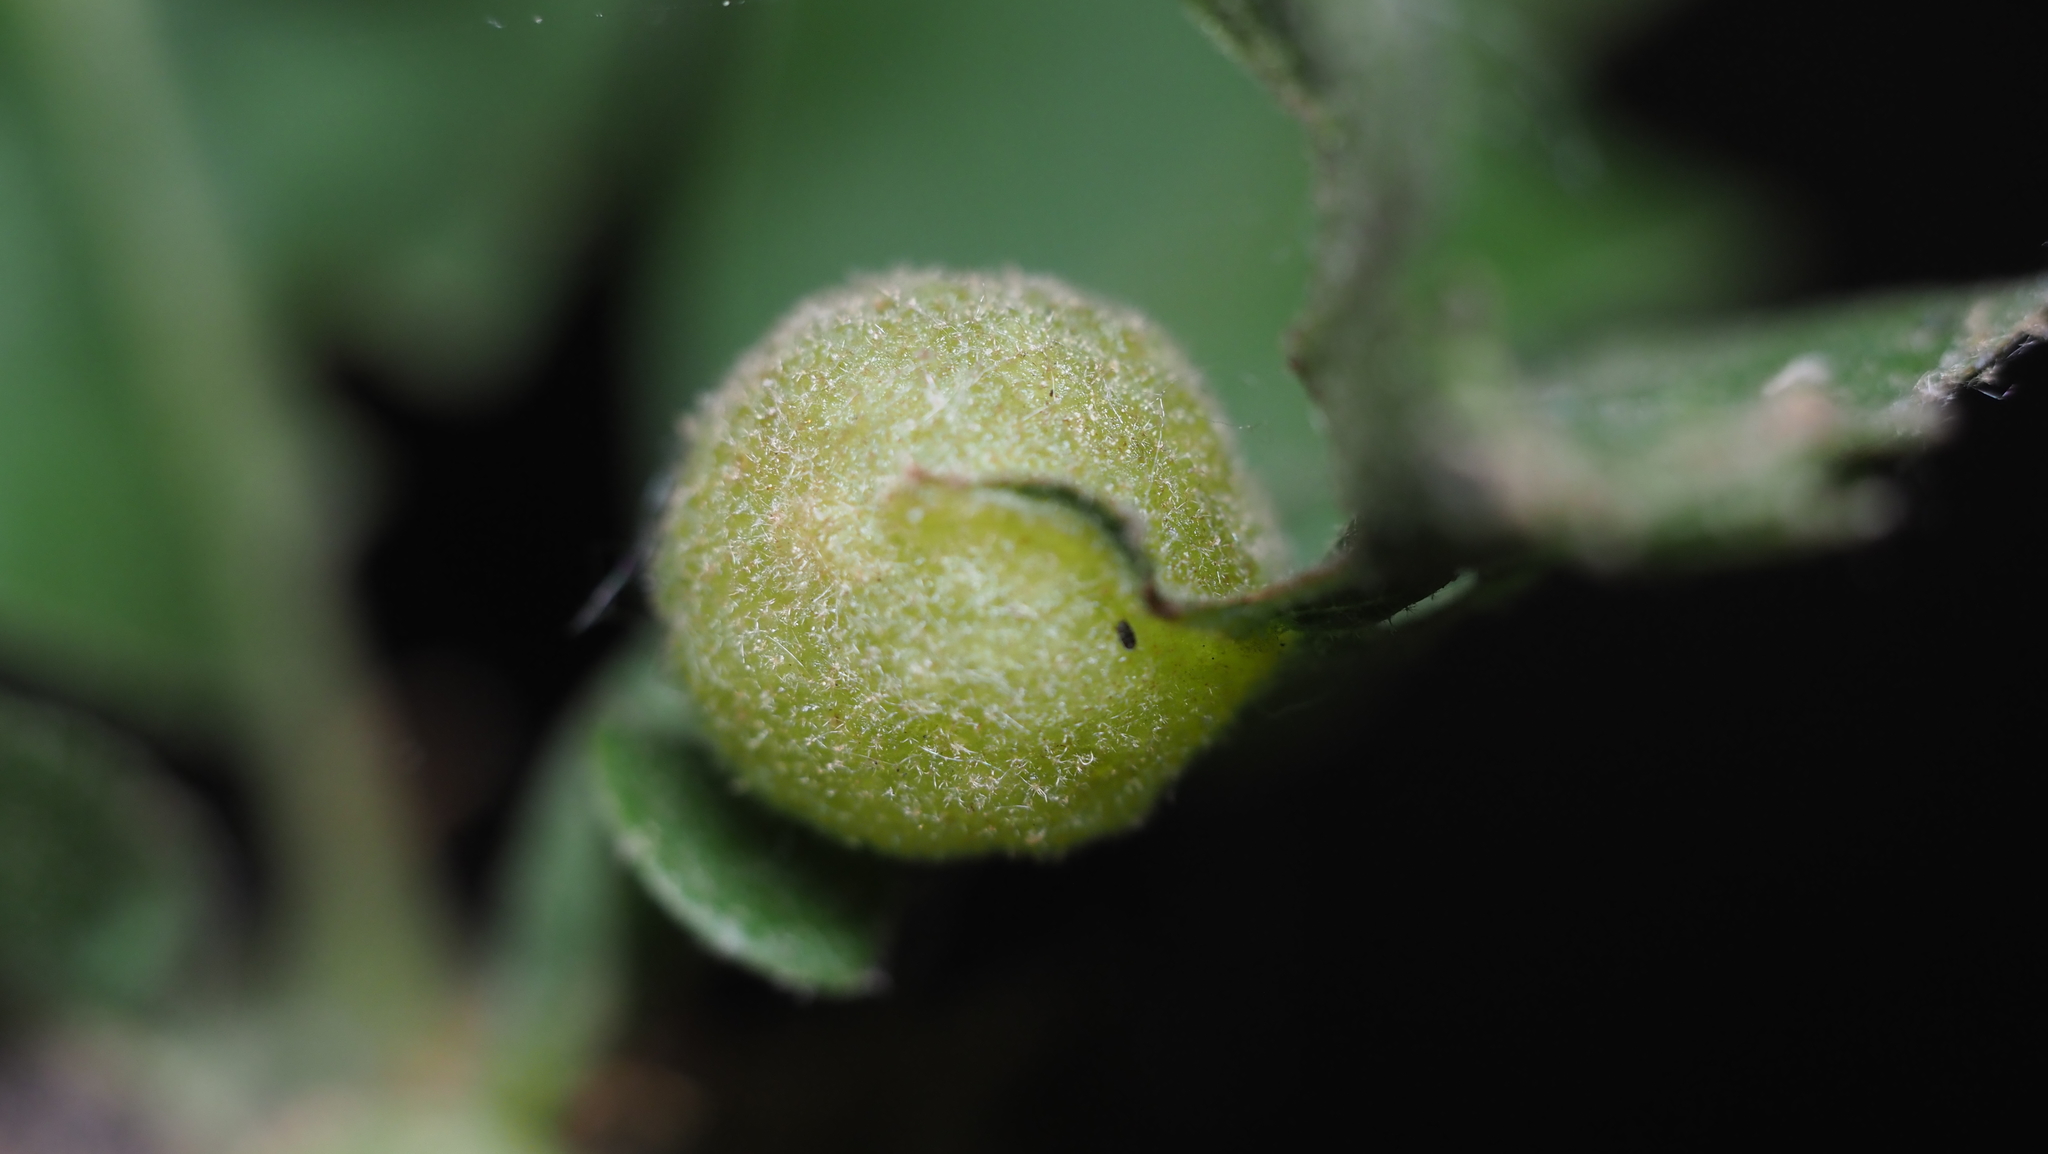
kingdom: Animalia
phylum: Arthropoda
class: Insecta
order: Hymenoptera
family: Cynipidae
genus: Dryocosmus
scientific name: Dryocosmus quercuspalustris
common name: Succulent oak gall wasp
